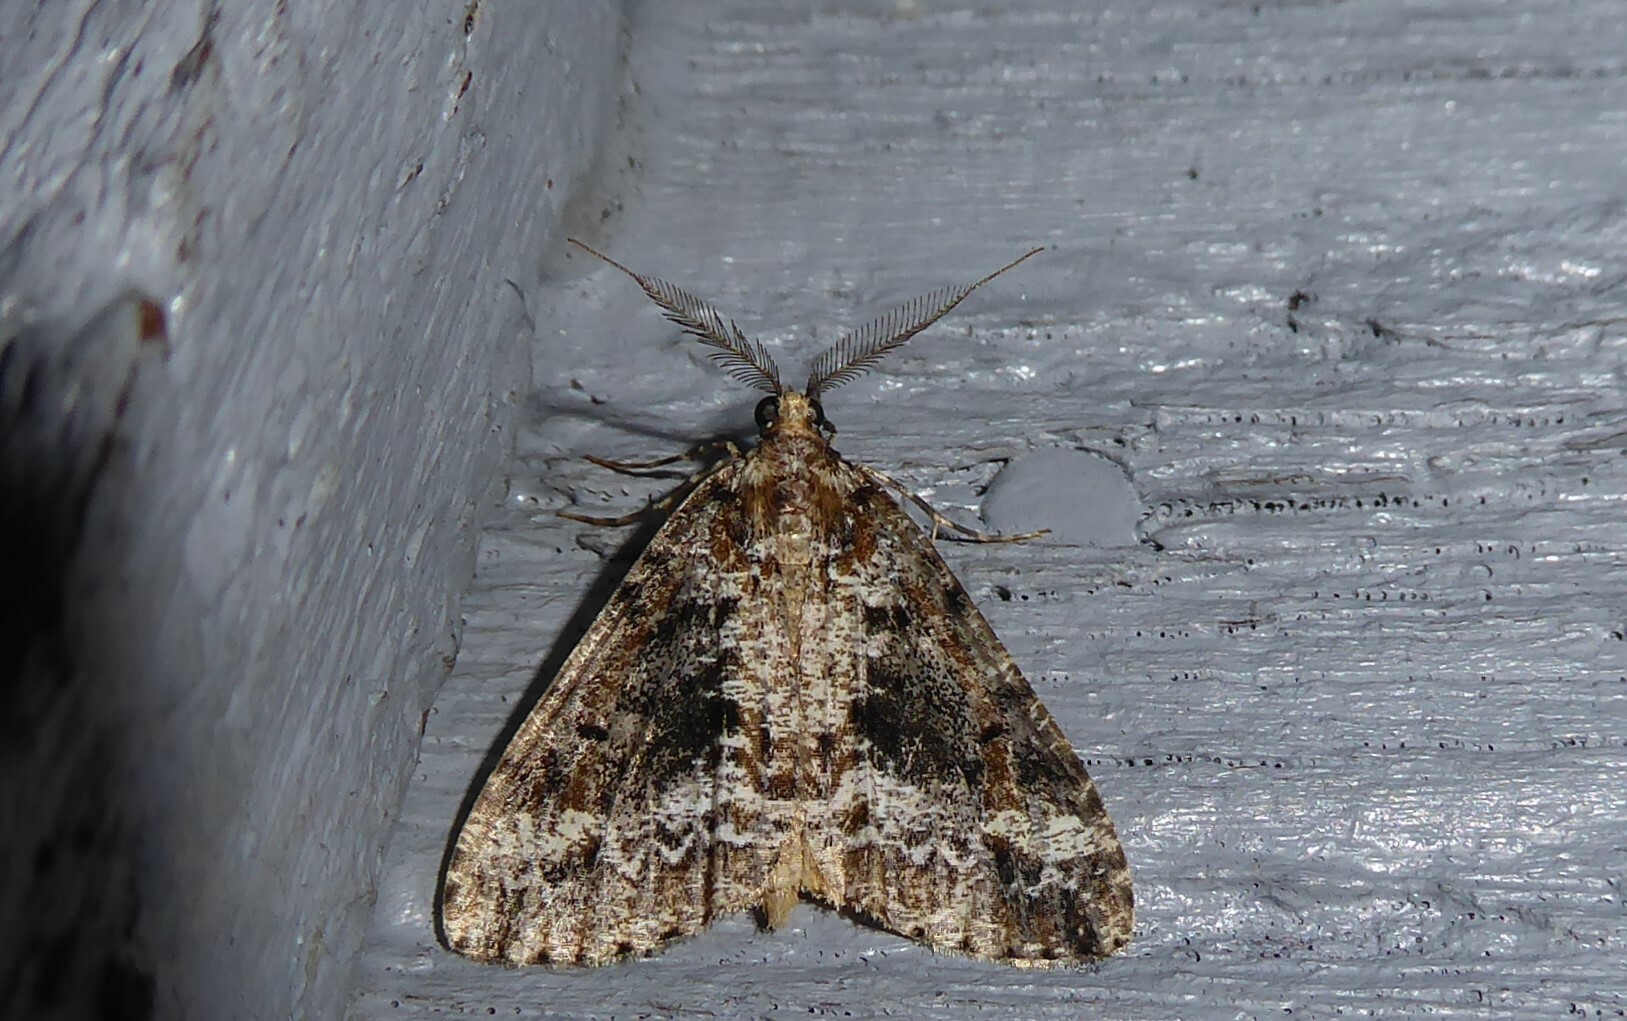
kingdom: Animalia
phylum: Arthropoda
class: Insecta
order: Lepidoptera
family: Geometridae
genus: Pseudocoremia
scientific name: Pseudocoremia leucelaea
